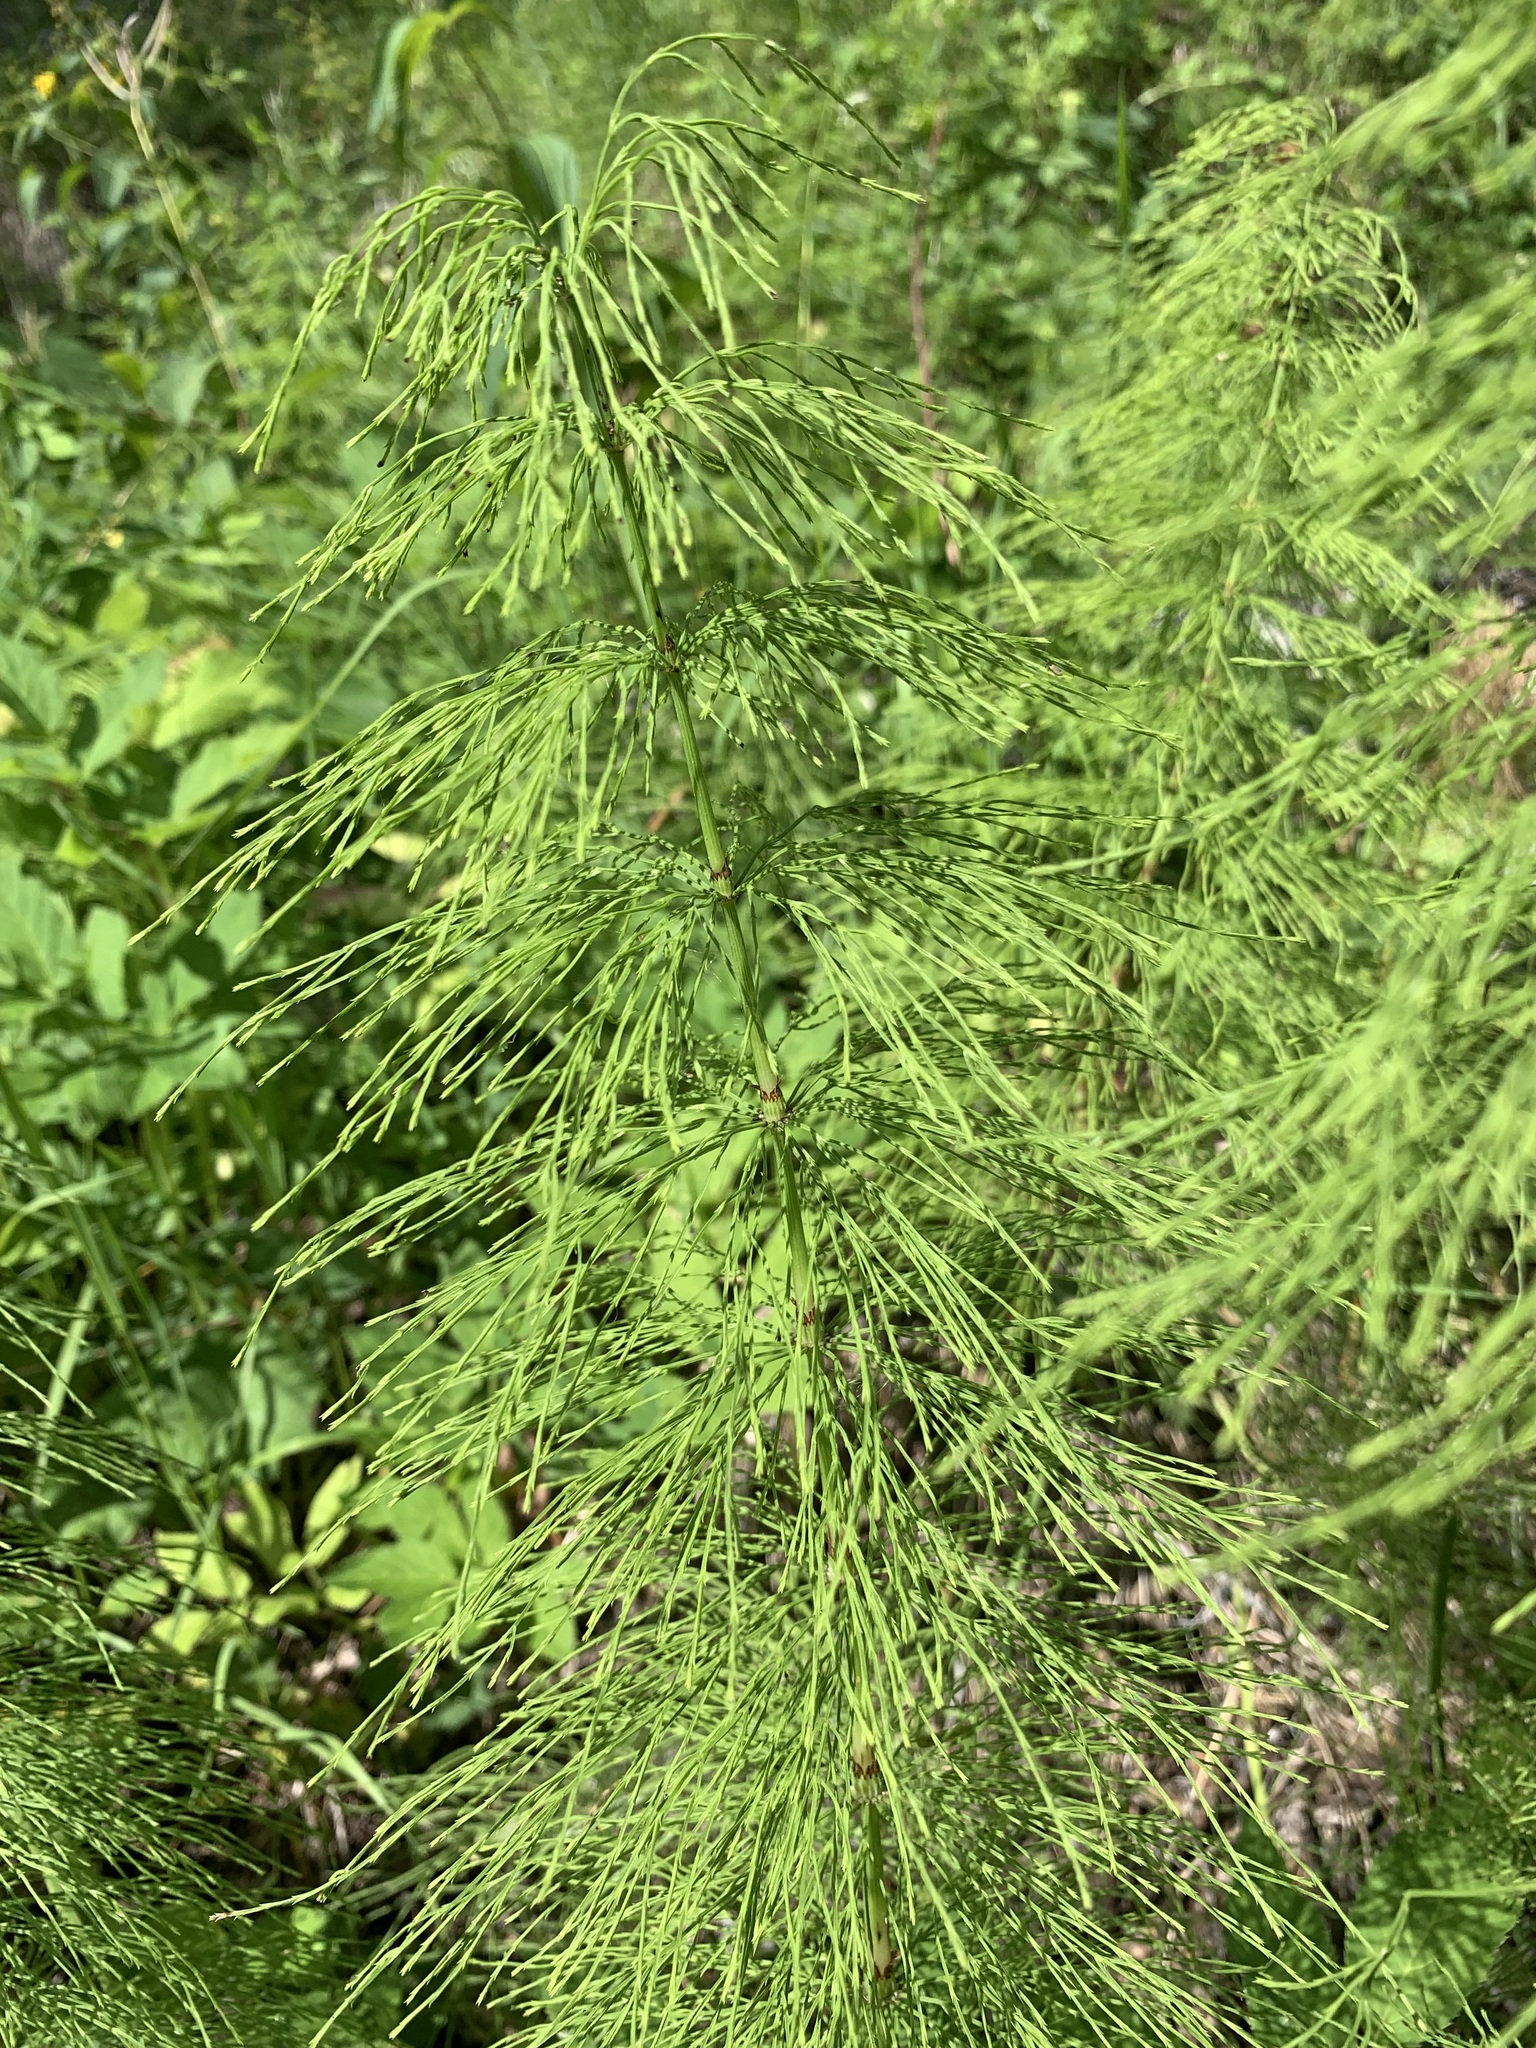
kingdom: Plantae
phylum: Tracheophyta
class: Polypodiopsida
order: Equisetales
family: Equisetaceae
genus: Equisetum
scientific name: Equisetum sylvaticum
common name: Wood horsetail
